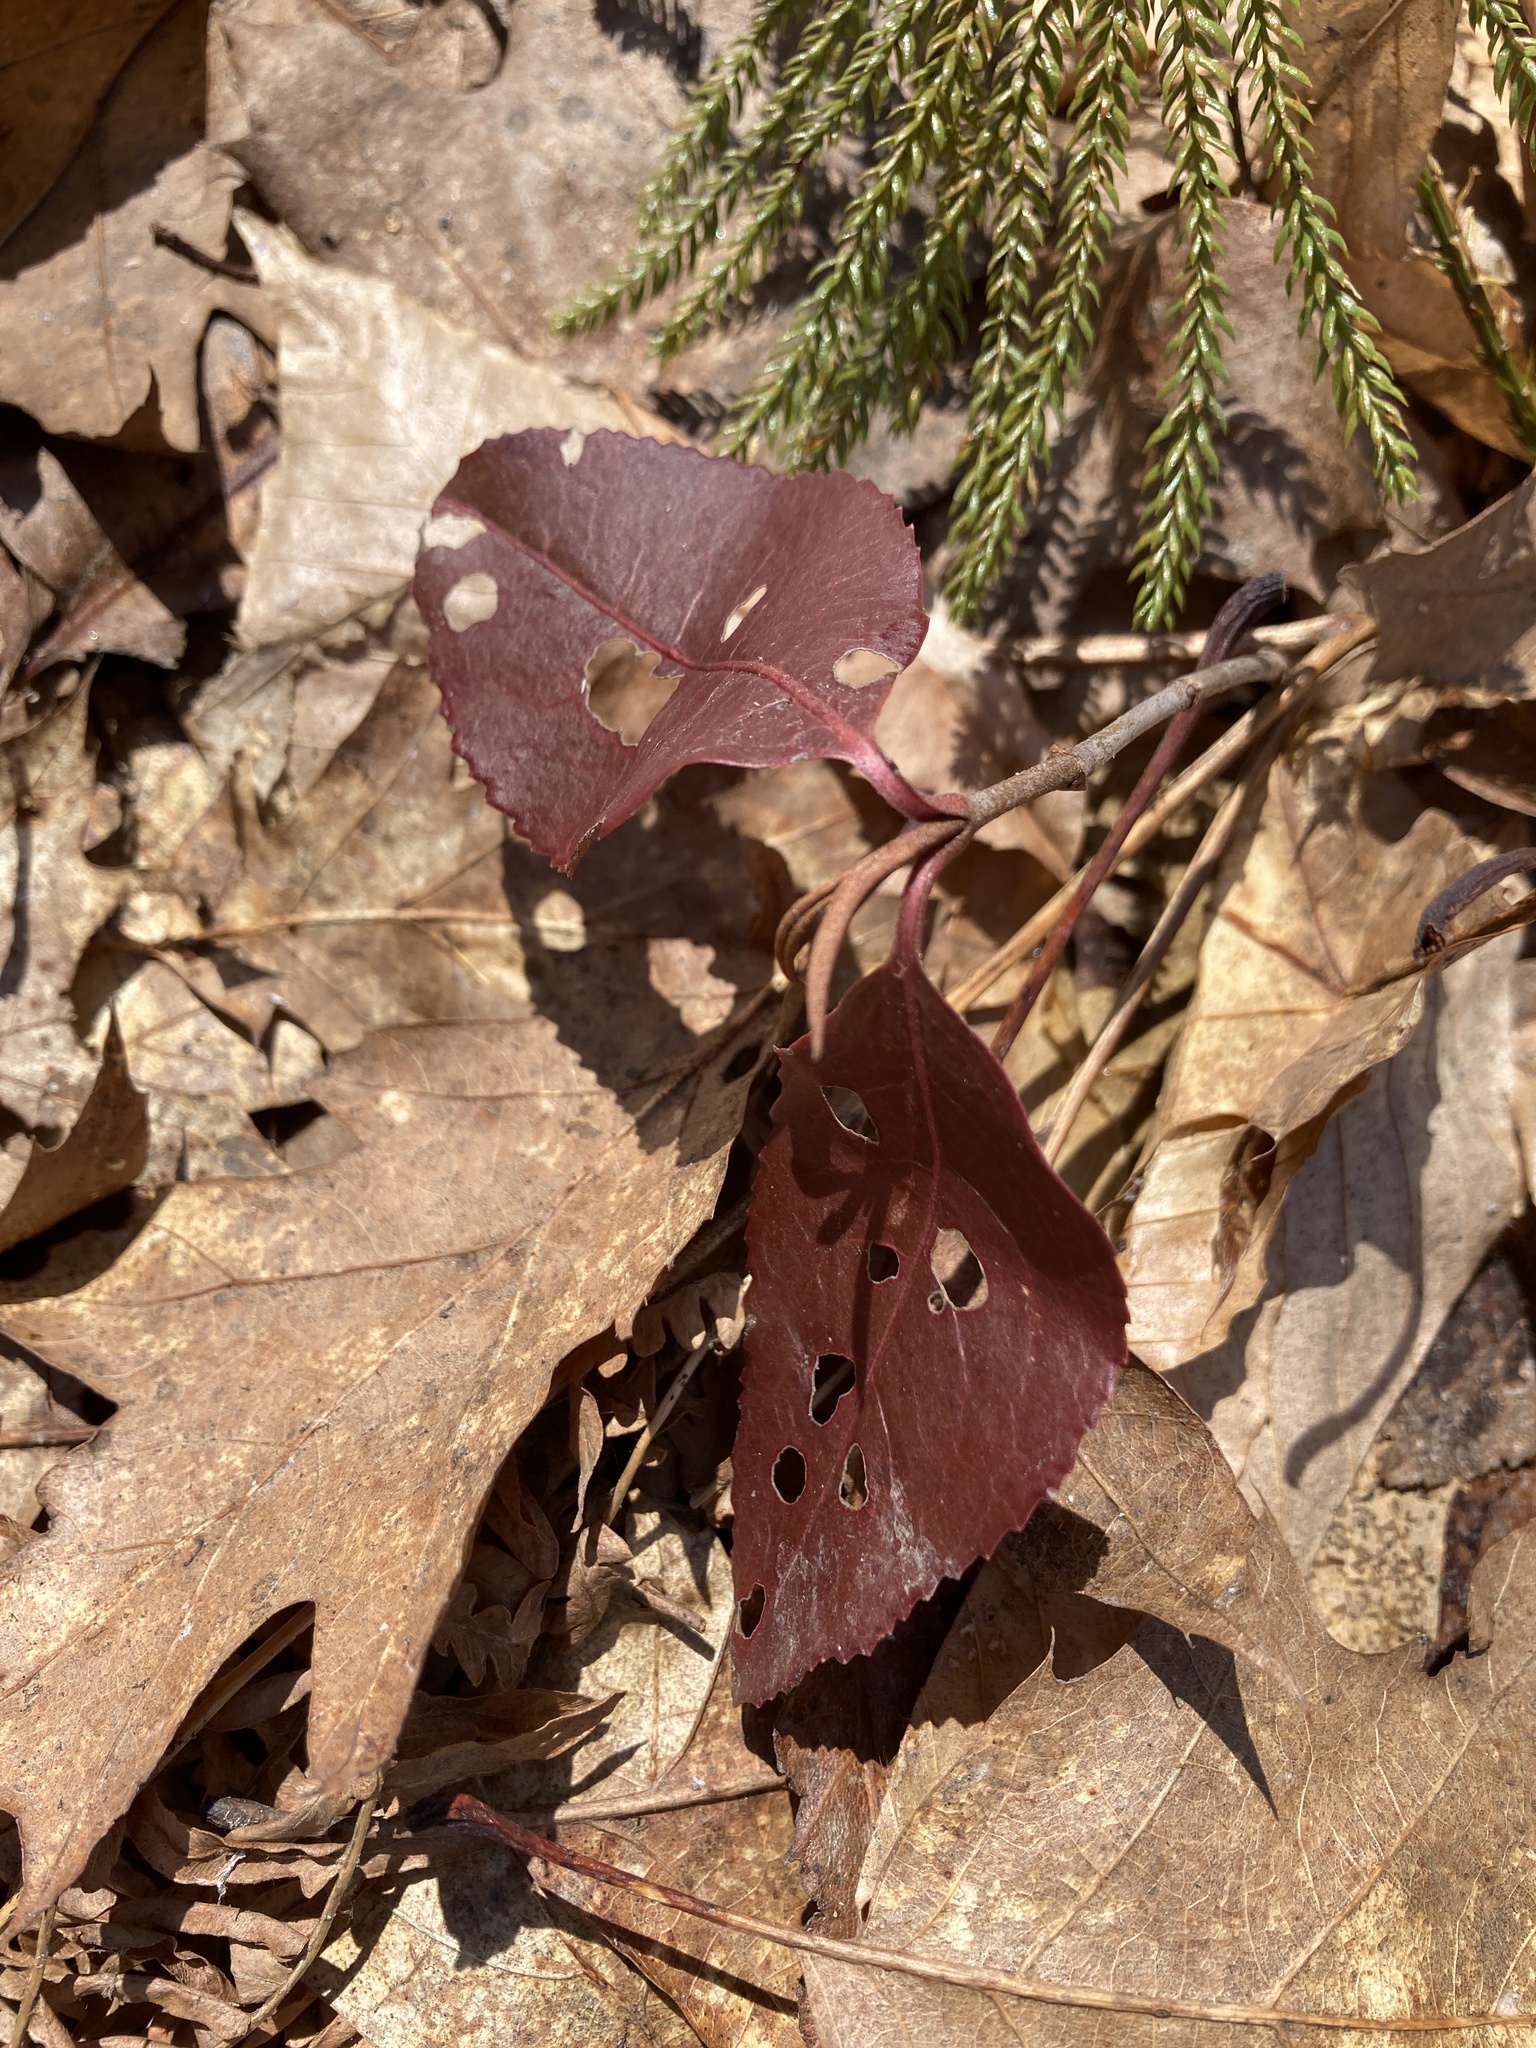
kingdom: Plantae
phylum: Tracheophyta
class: Magnoliopsida
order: Dipsacales
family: Viburnaceae
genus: Viburnum
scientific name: Viburnum cassinoides
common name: Swamp haw
